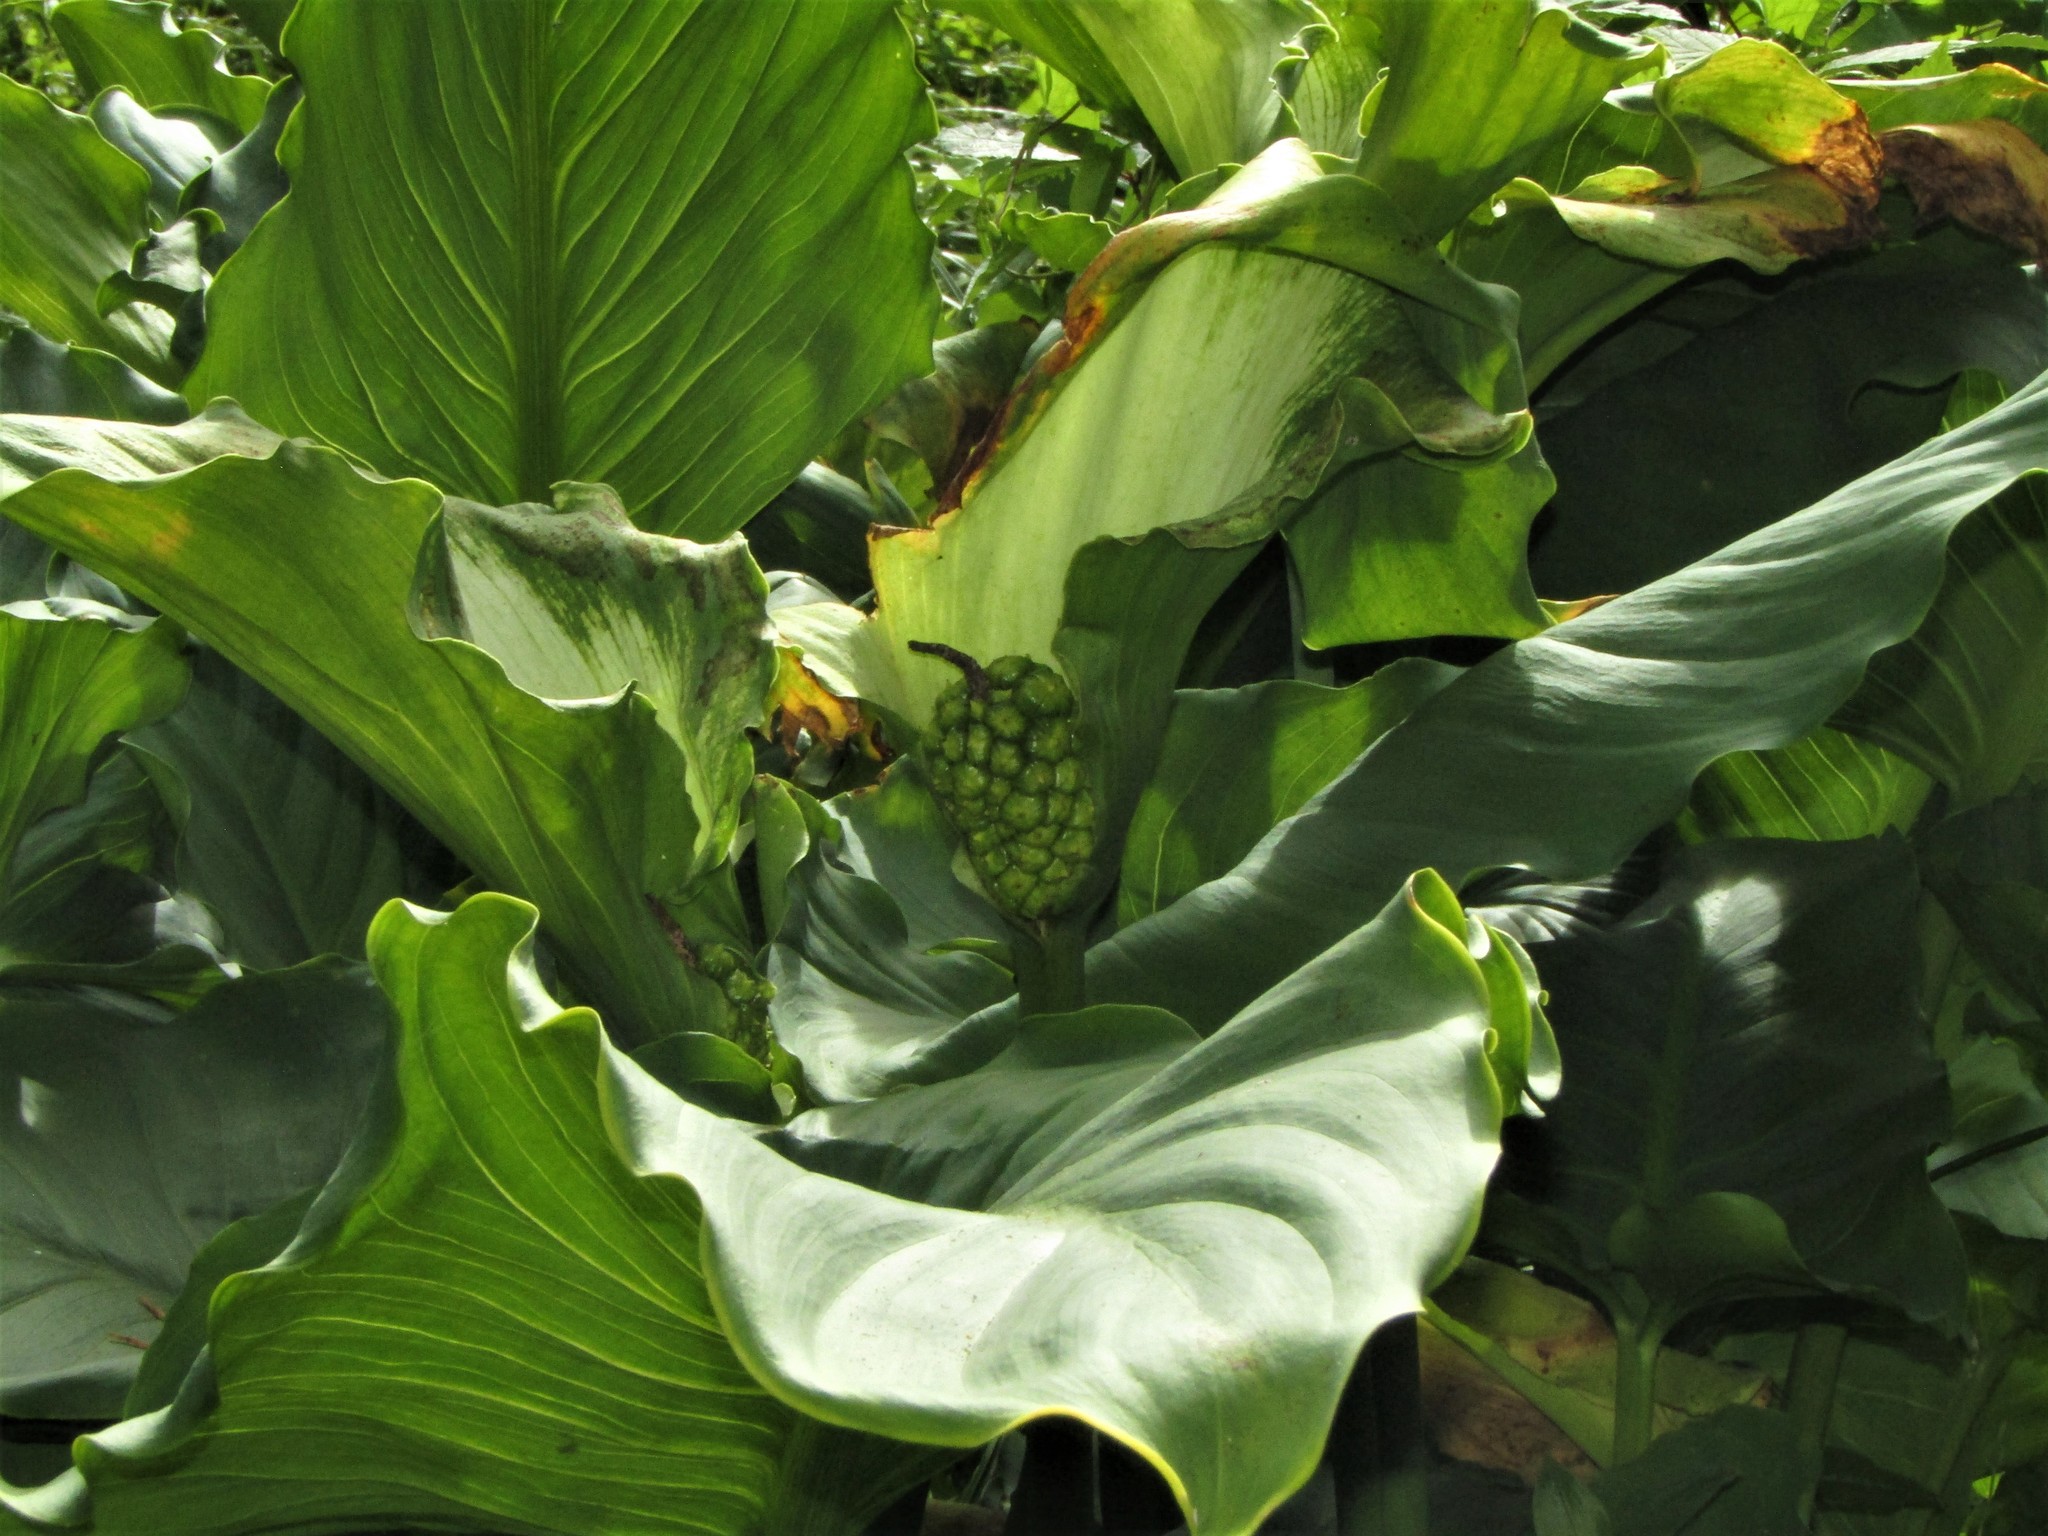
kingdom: Plantae
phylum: Tracheophyta
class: Liliopsida
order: Alismatales
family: Araceae
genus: Zantedeschia
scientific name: Zantedeschia aethiopica
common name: Altar-lily
